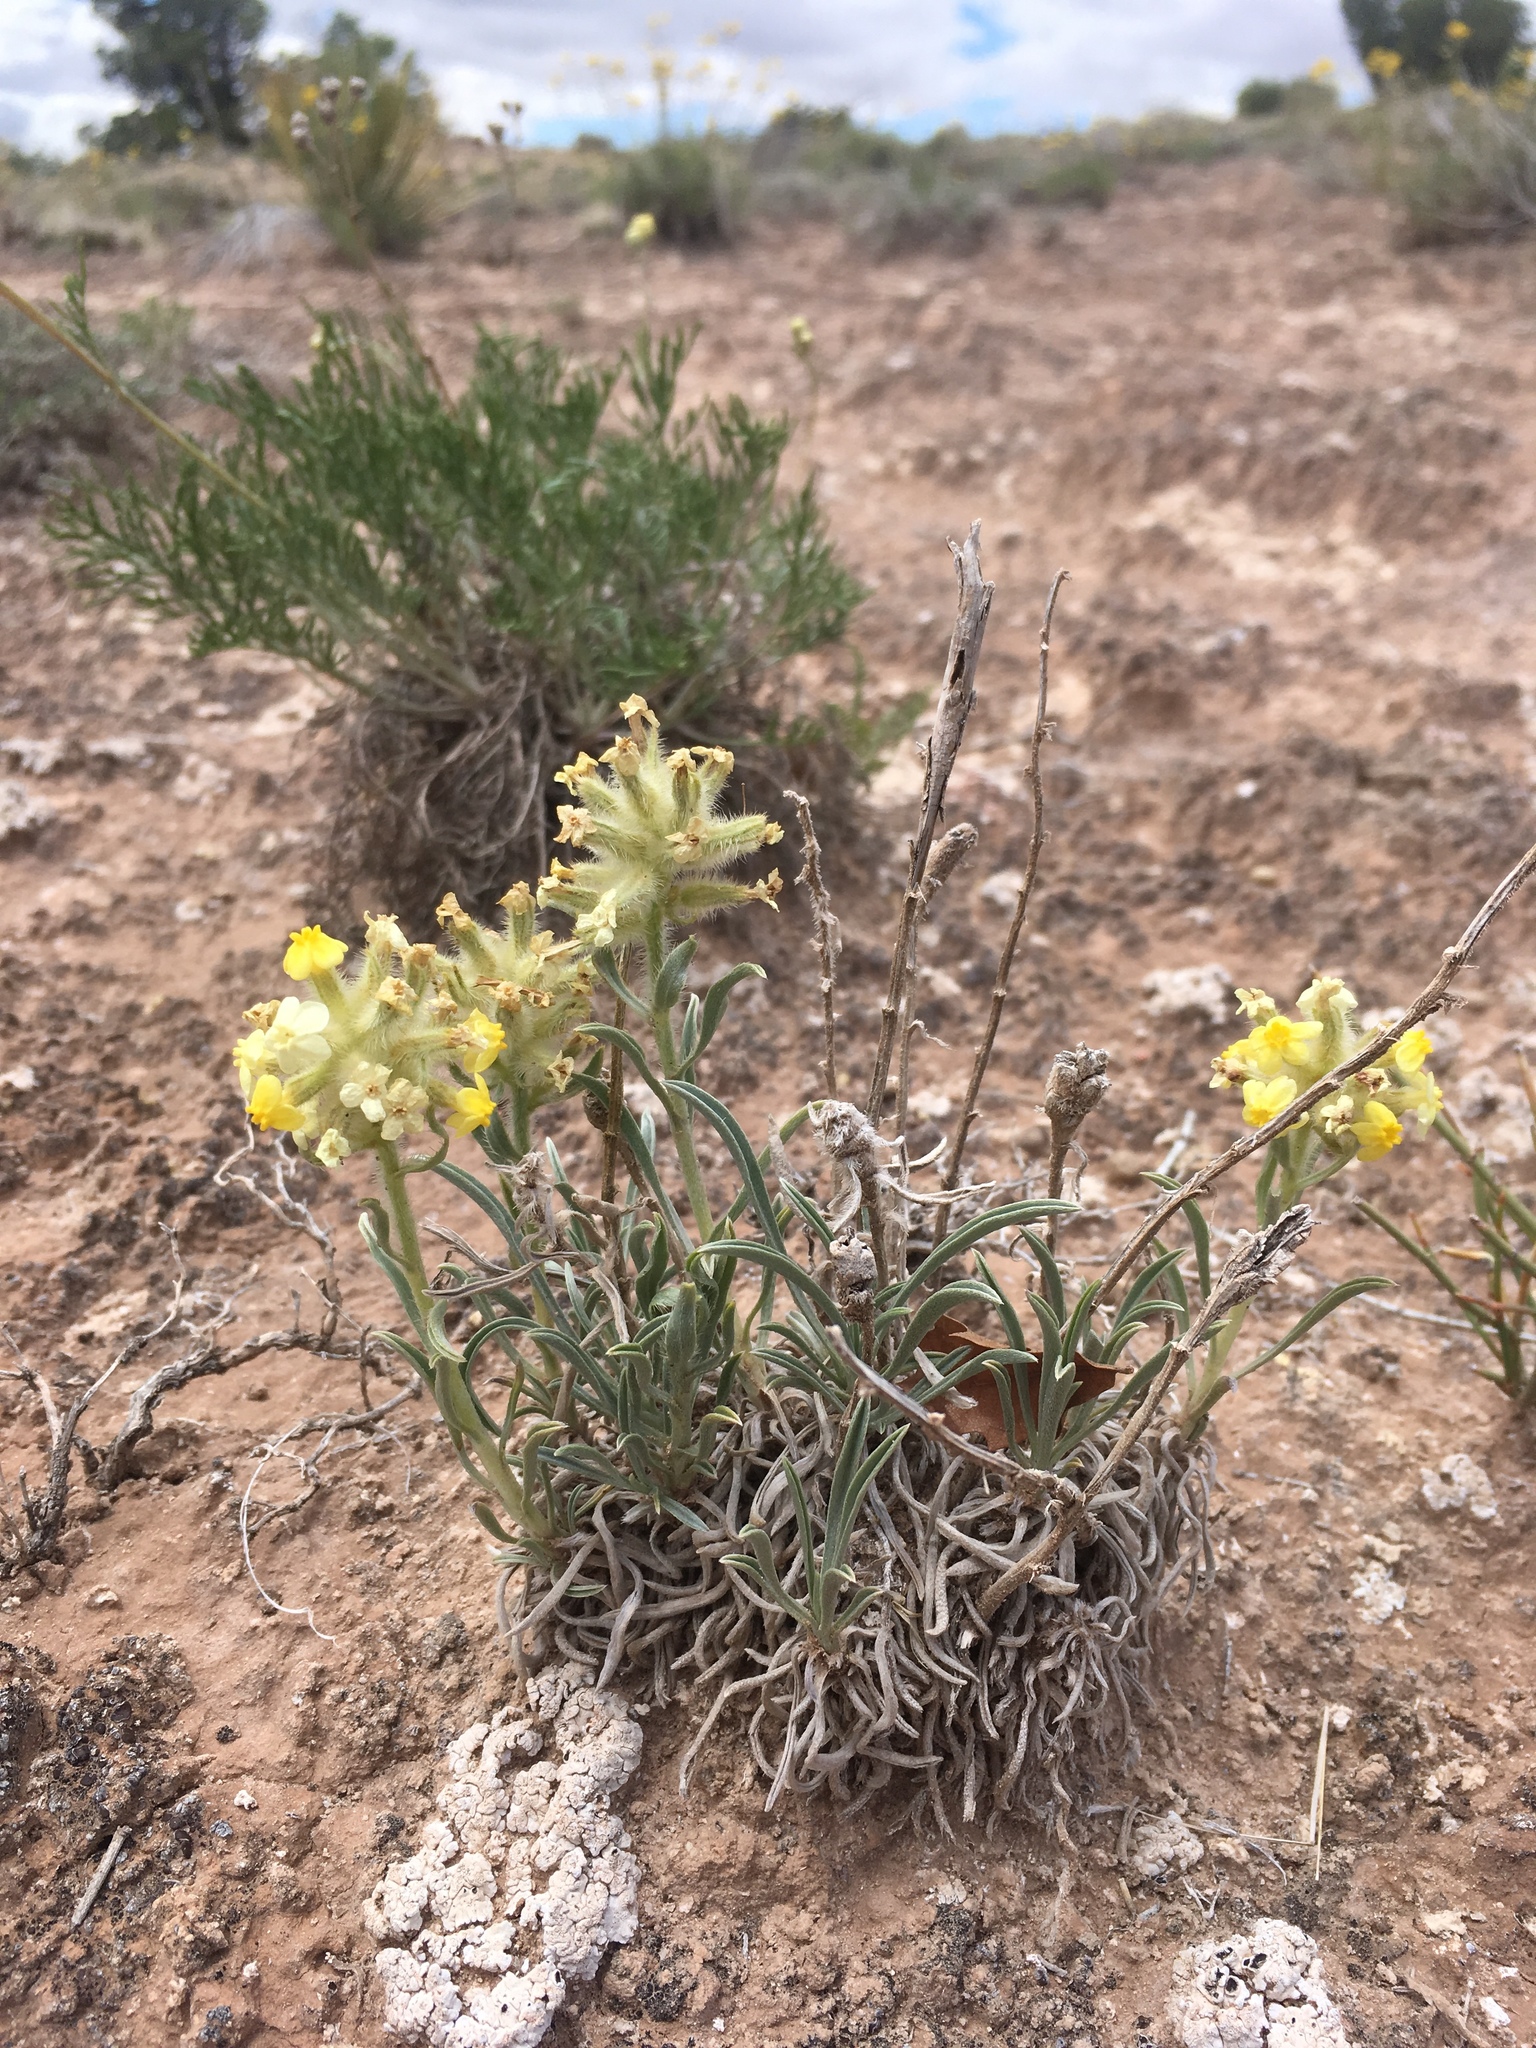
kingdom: Plantae
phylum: Tracheophyta
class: Magnoliopsida
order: Boraginales
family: Boraginaceae
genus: Oreocarya
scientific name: Oreocarya flava
